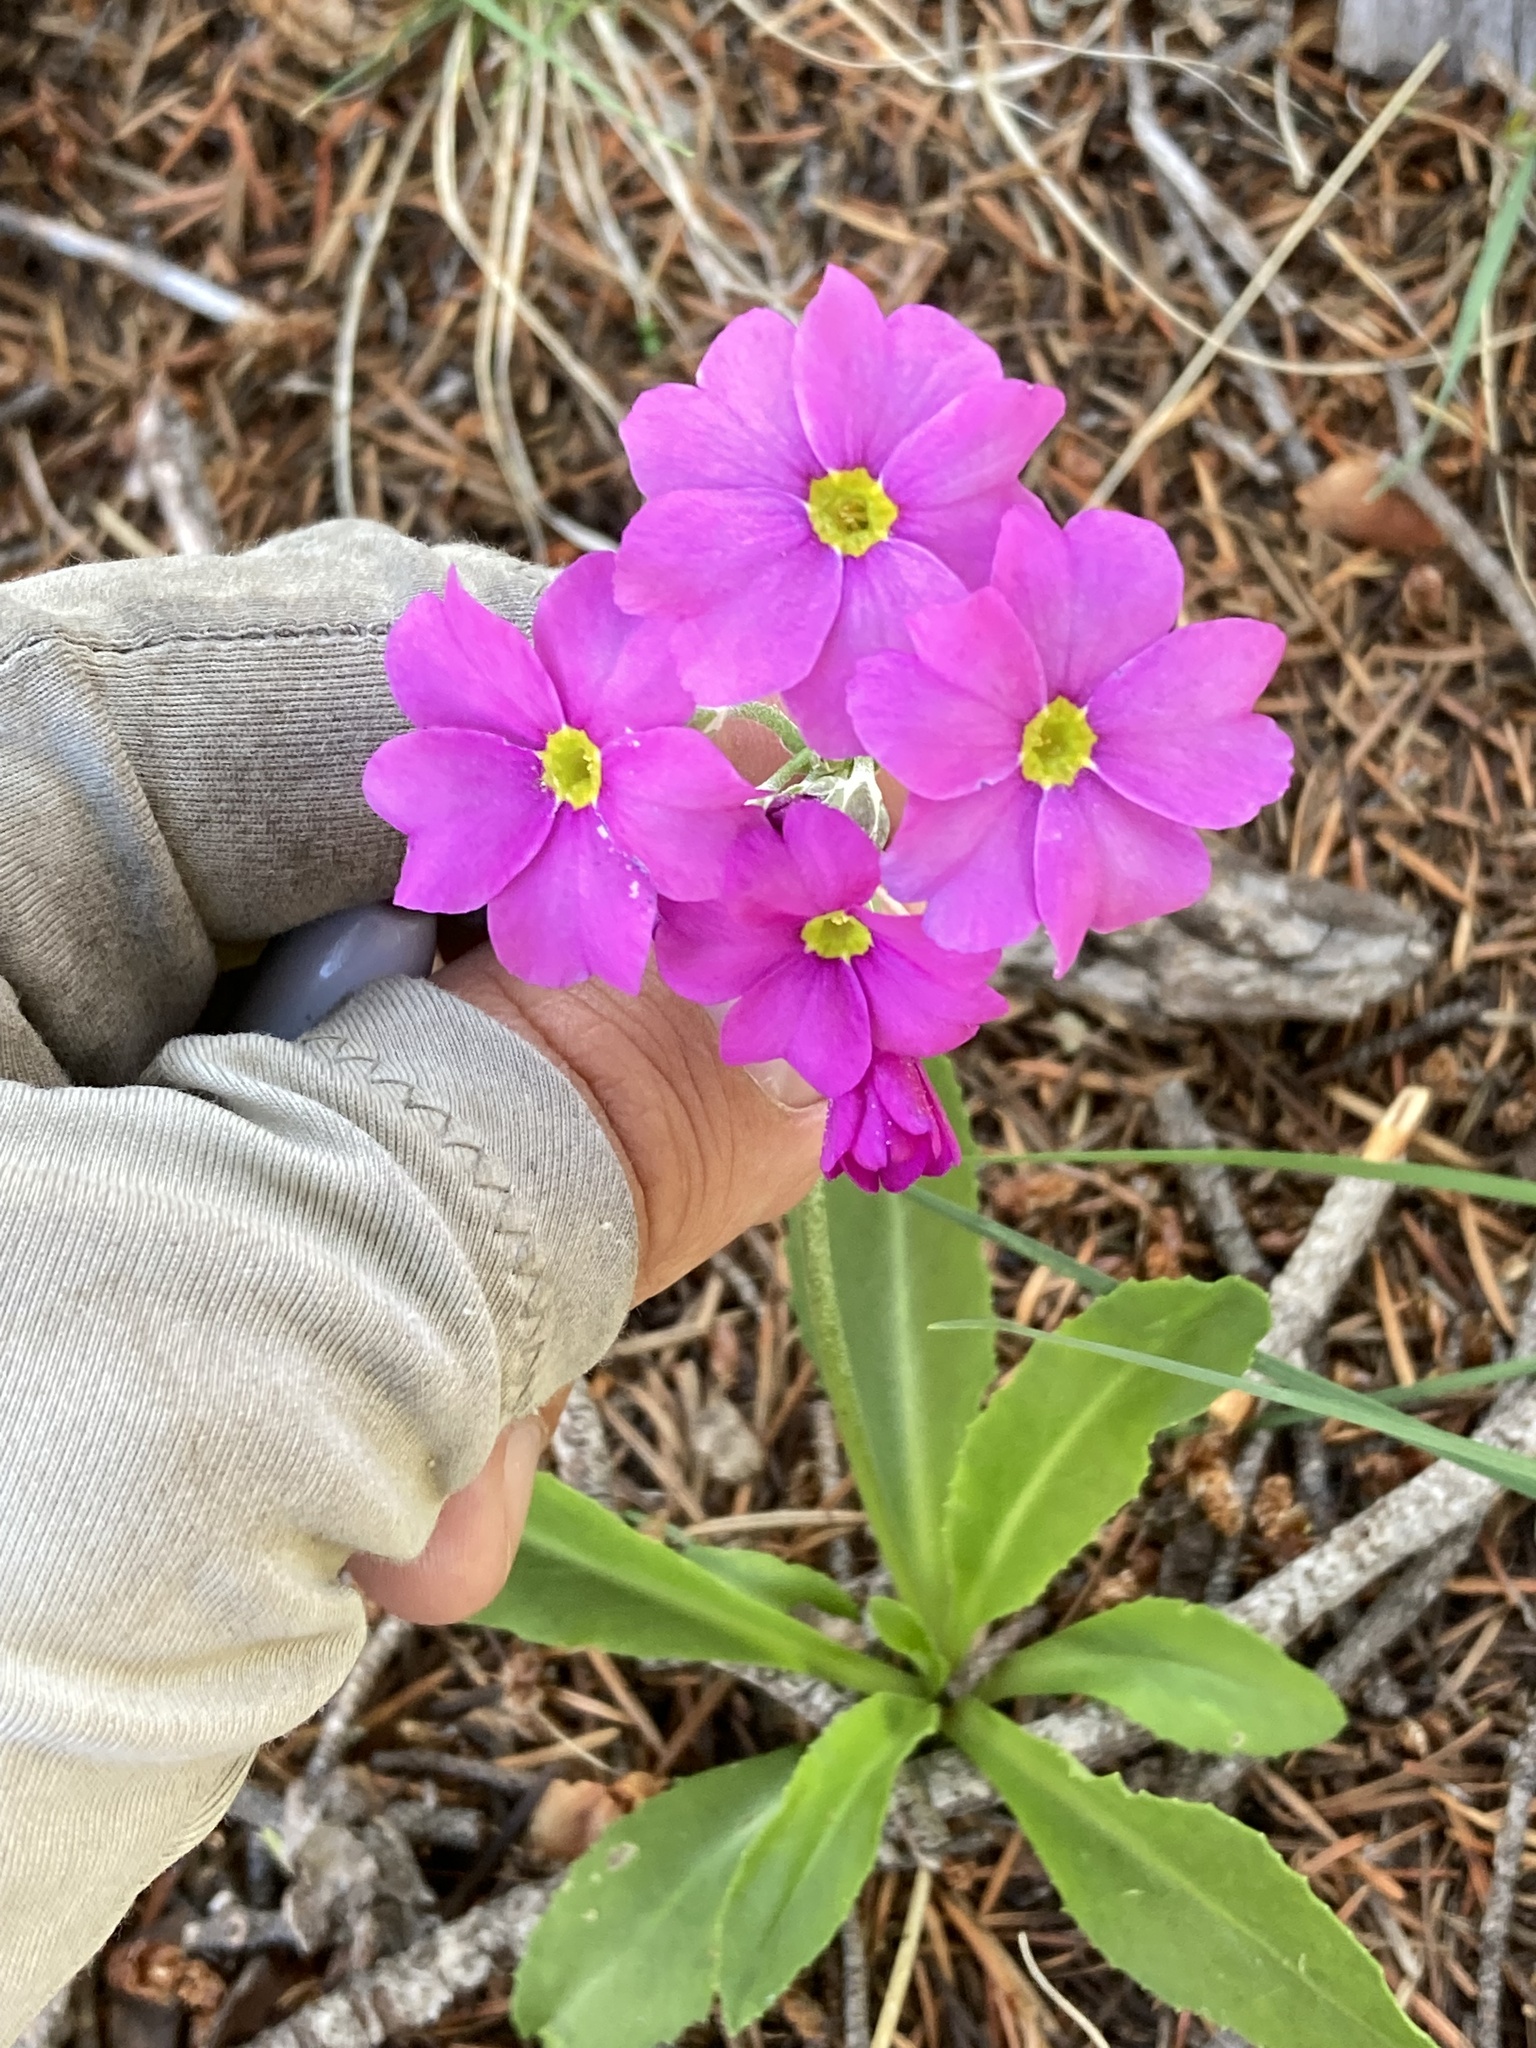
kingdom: Plantae
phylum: Tracheophyta
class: Magnoliopsida
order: Ericales
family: Primulaceae
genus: Primula
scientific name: Primula rusbyi
